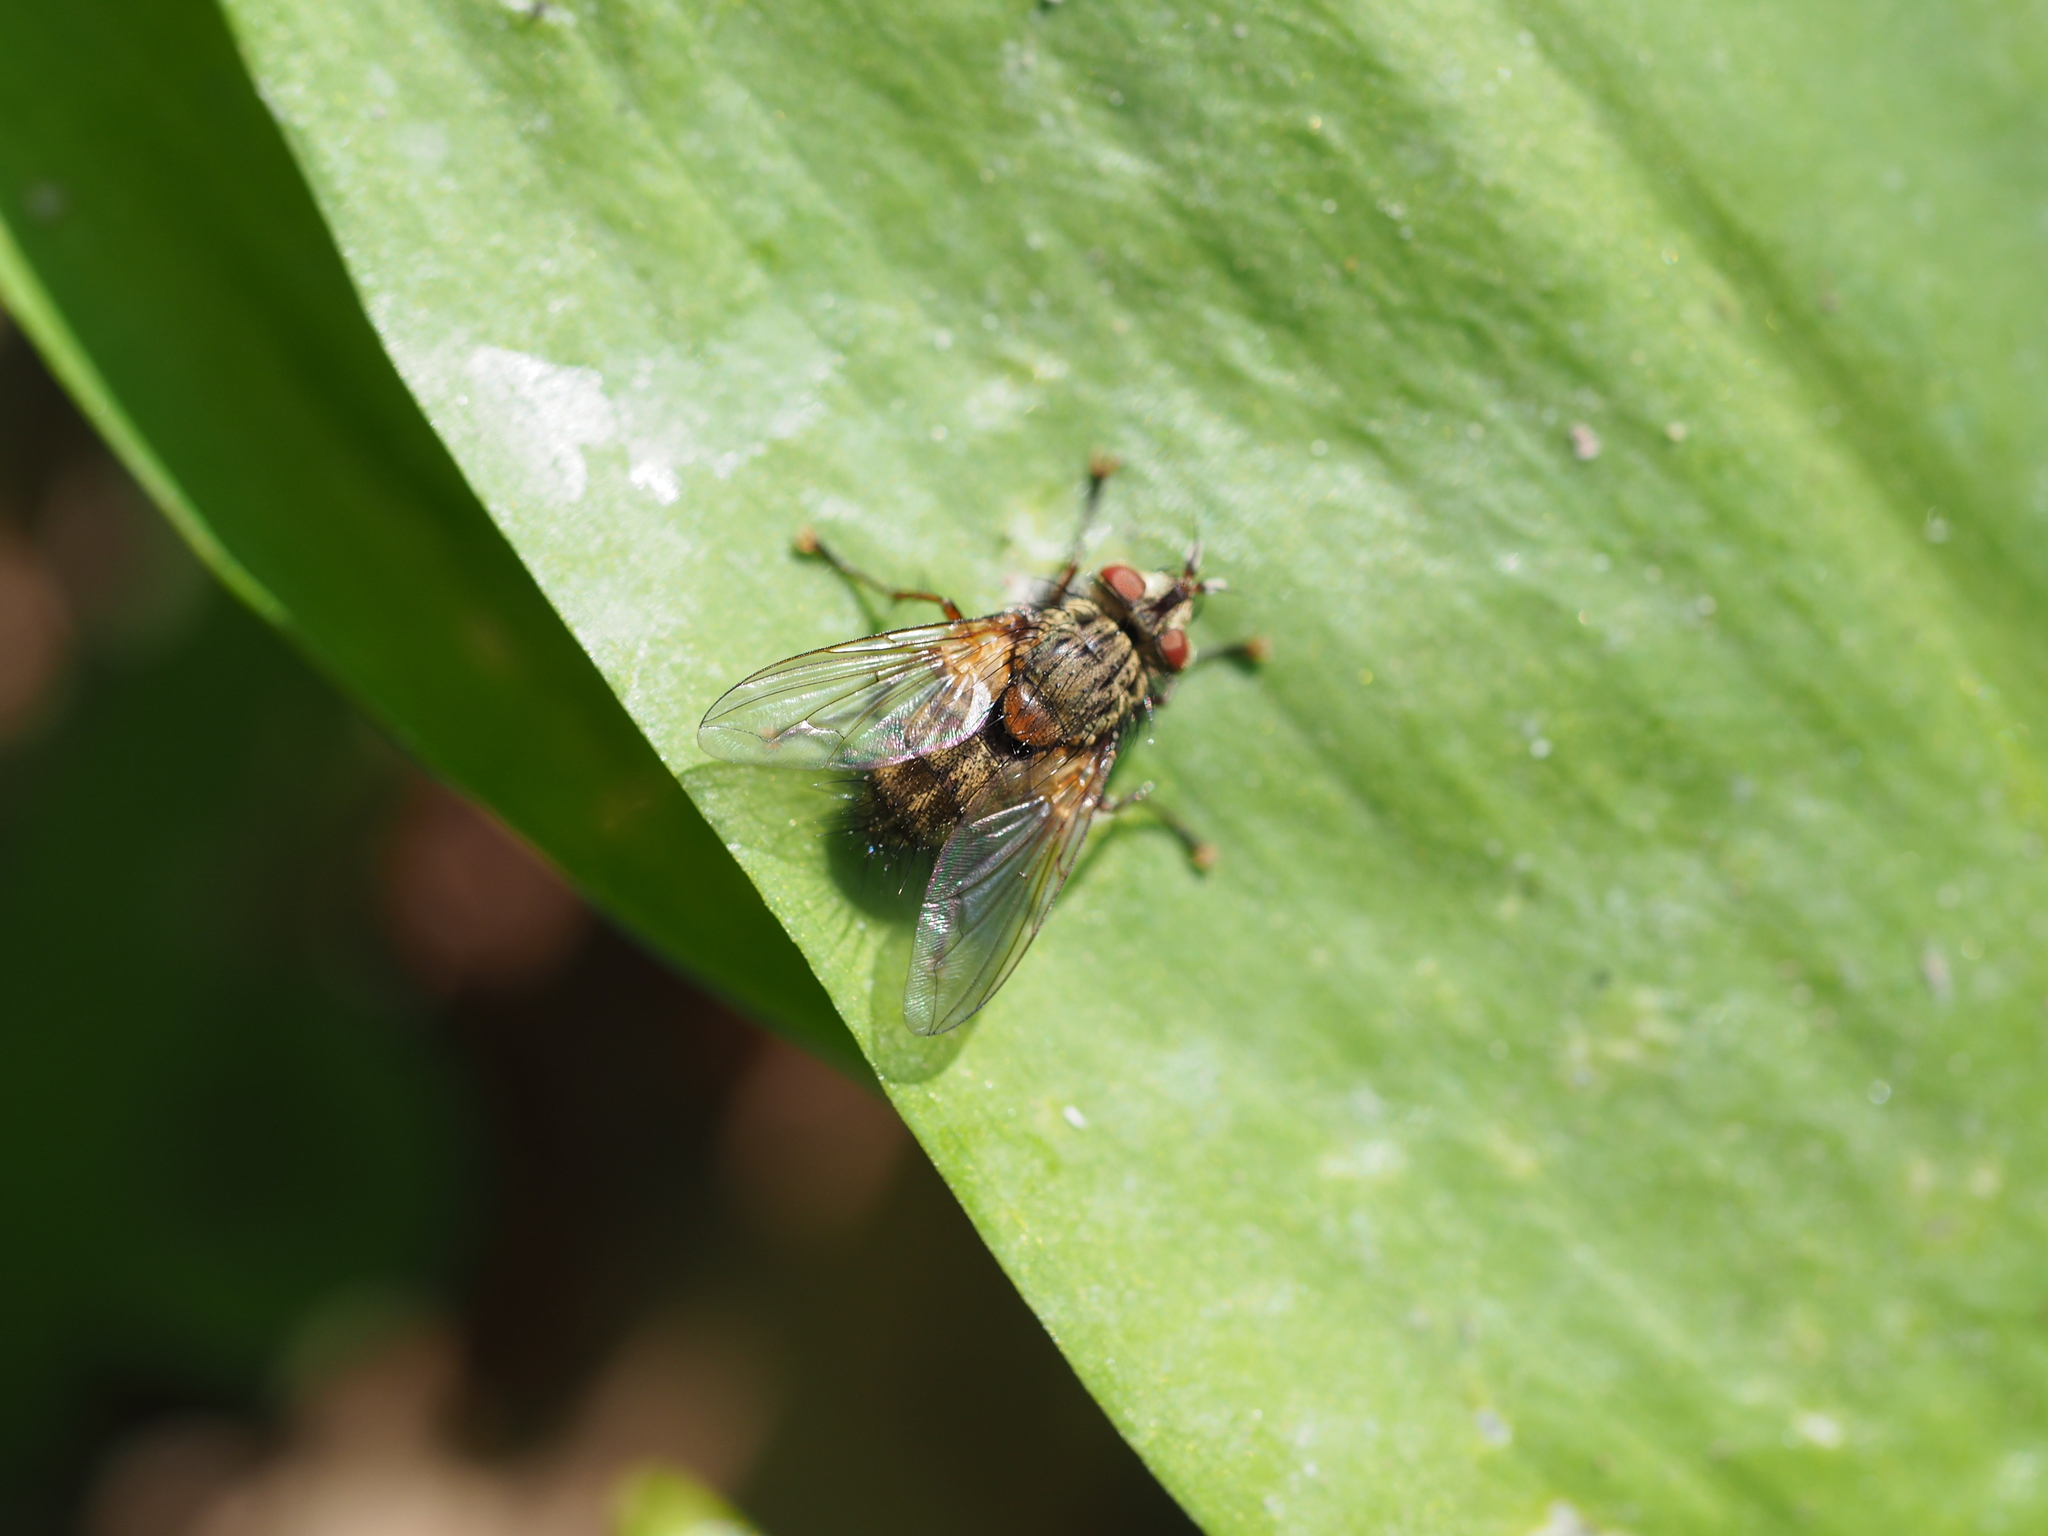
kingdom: Animalia
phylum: Arthropoda
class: Insecta
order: Diptera
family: Tachinidae
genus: Phryno
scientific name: Phryno vetula
